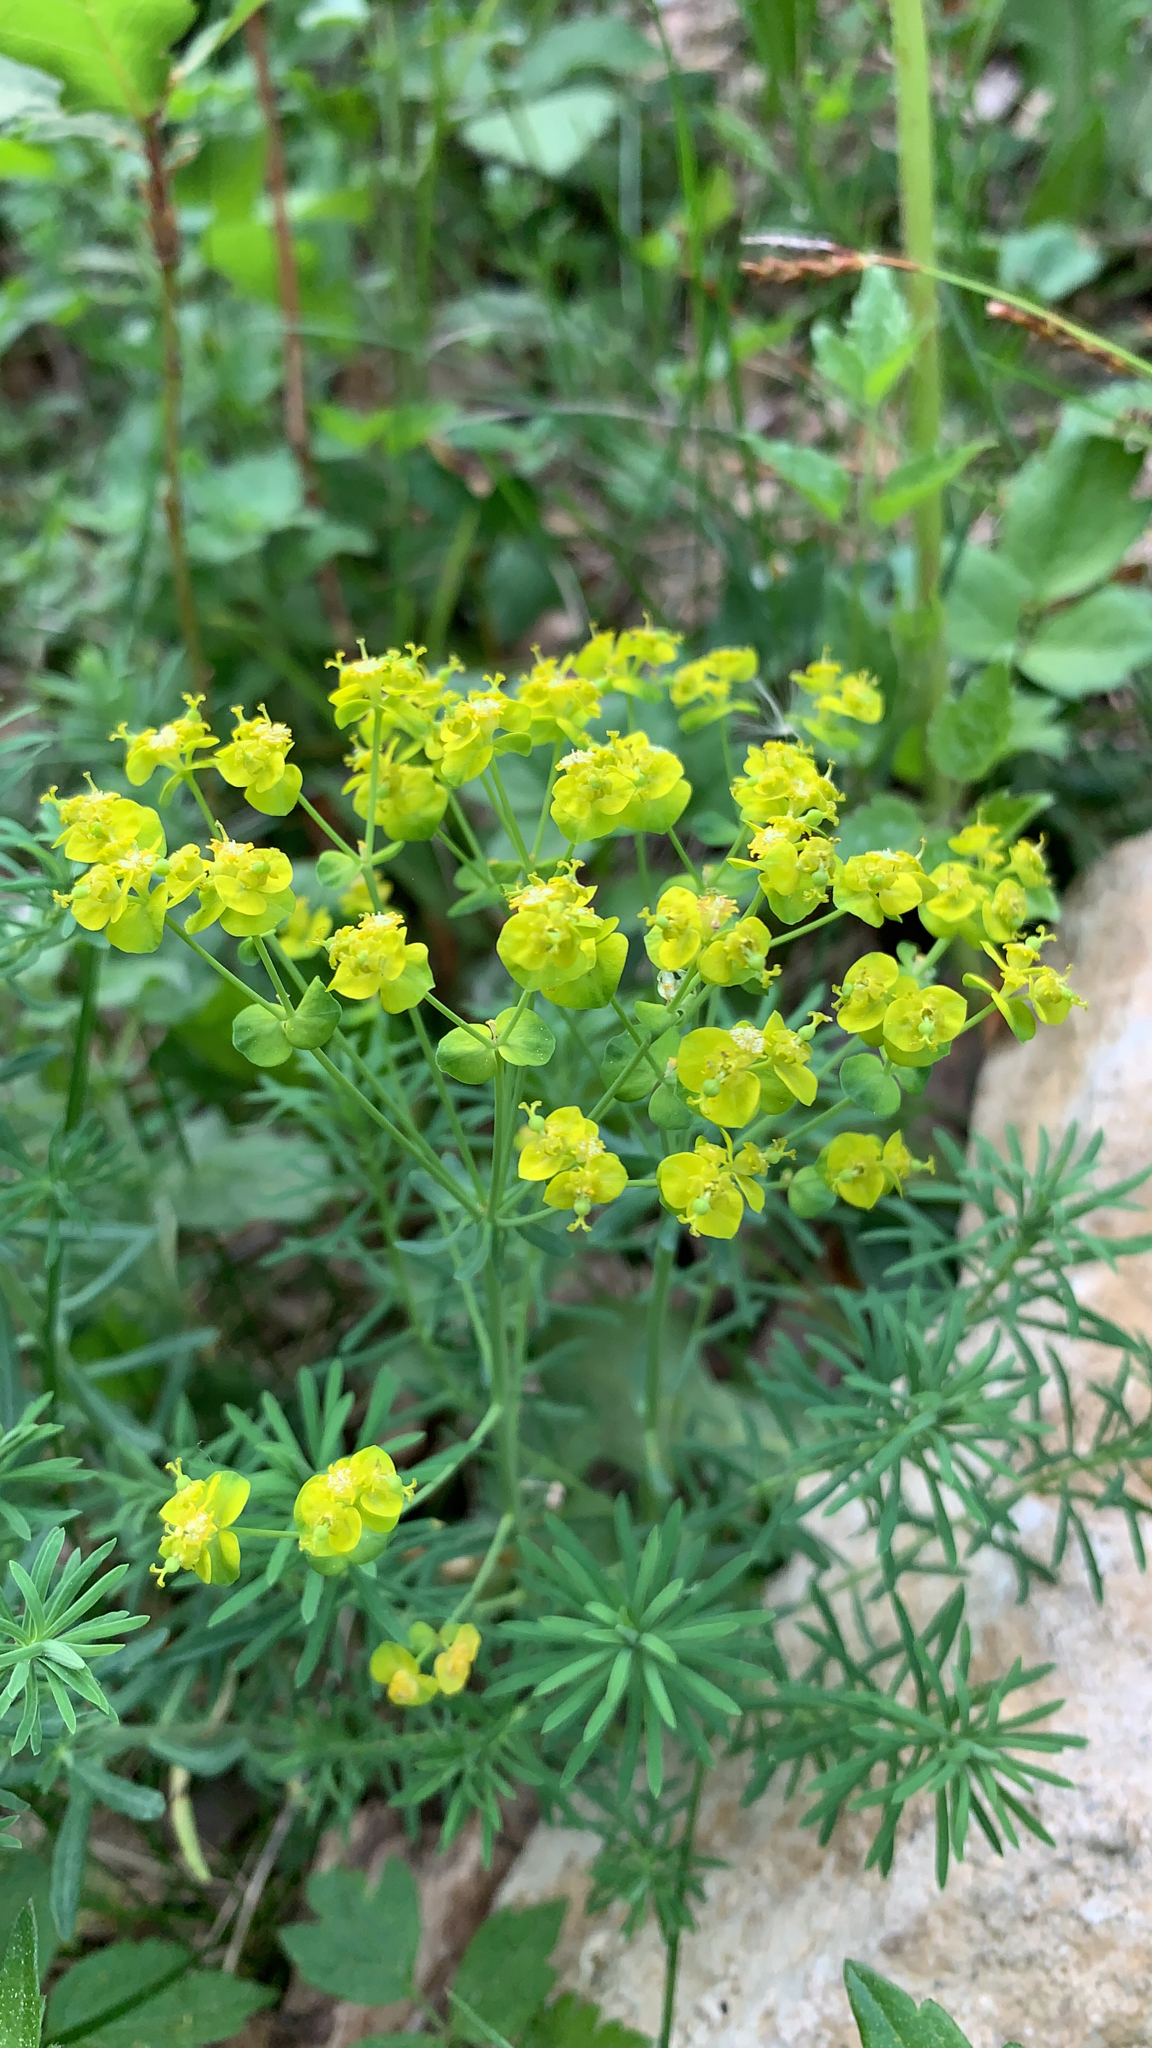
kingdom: Plantae
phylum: Tracheophyta
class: Magnoliopsida
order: Malpighiales
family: Euphorbiaceae
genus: Euphorbia
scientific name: Euphorbia cyparissias
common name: Cypress spurge
